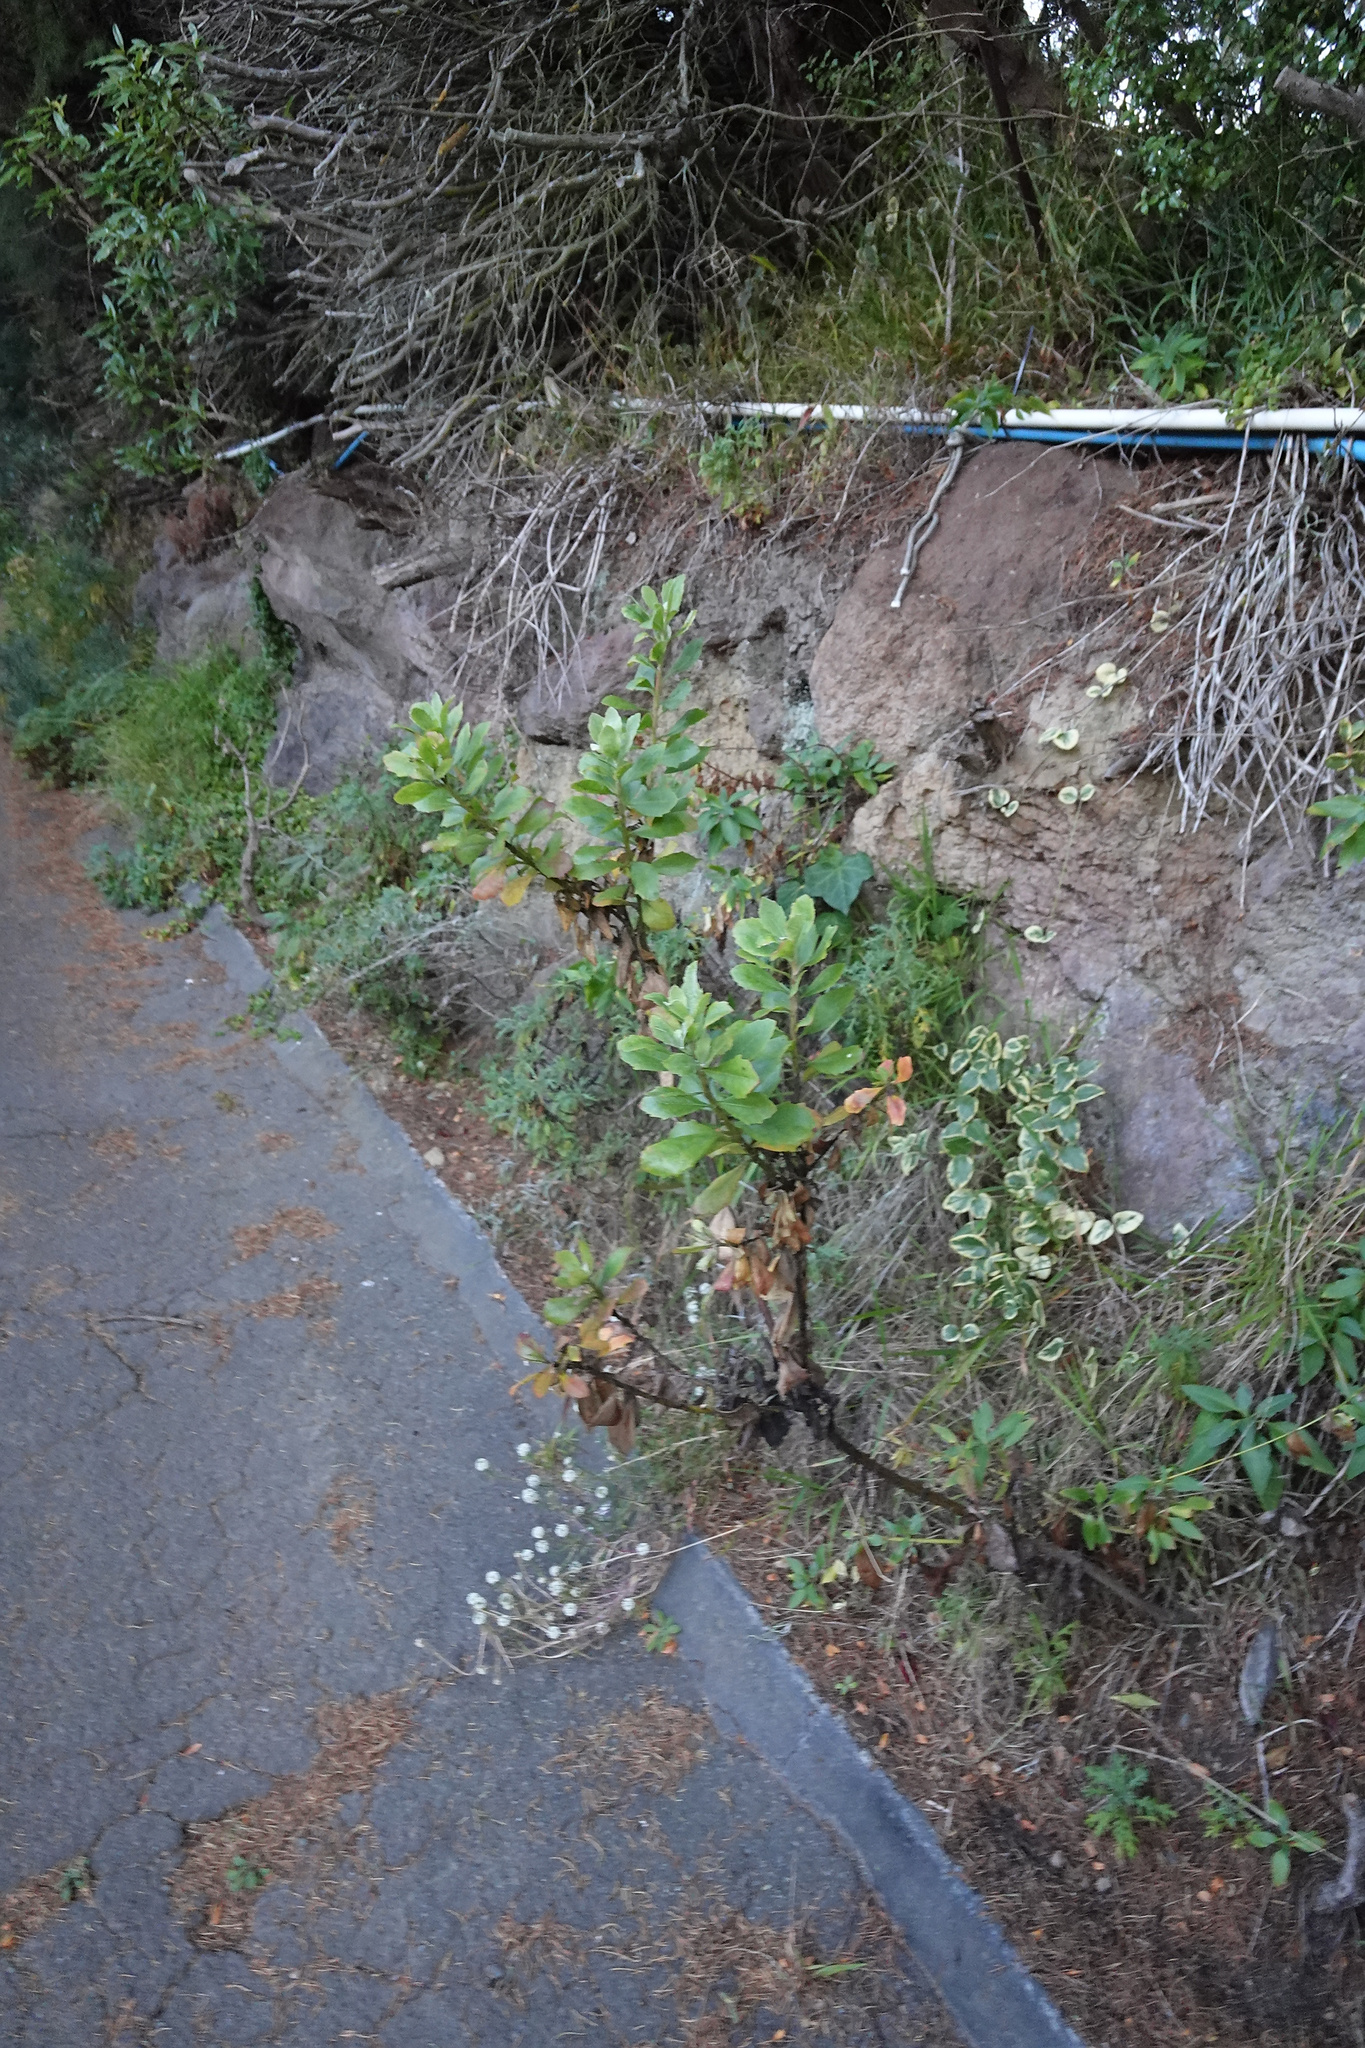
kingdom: Plantae
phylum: Tracheophyta
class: Magnoliopsida
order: Asterales
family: Asteraceae
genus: Osteospermum
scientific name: Osteospermum moniliferum
